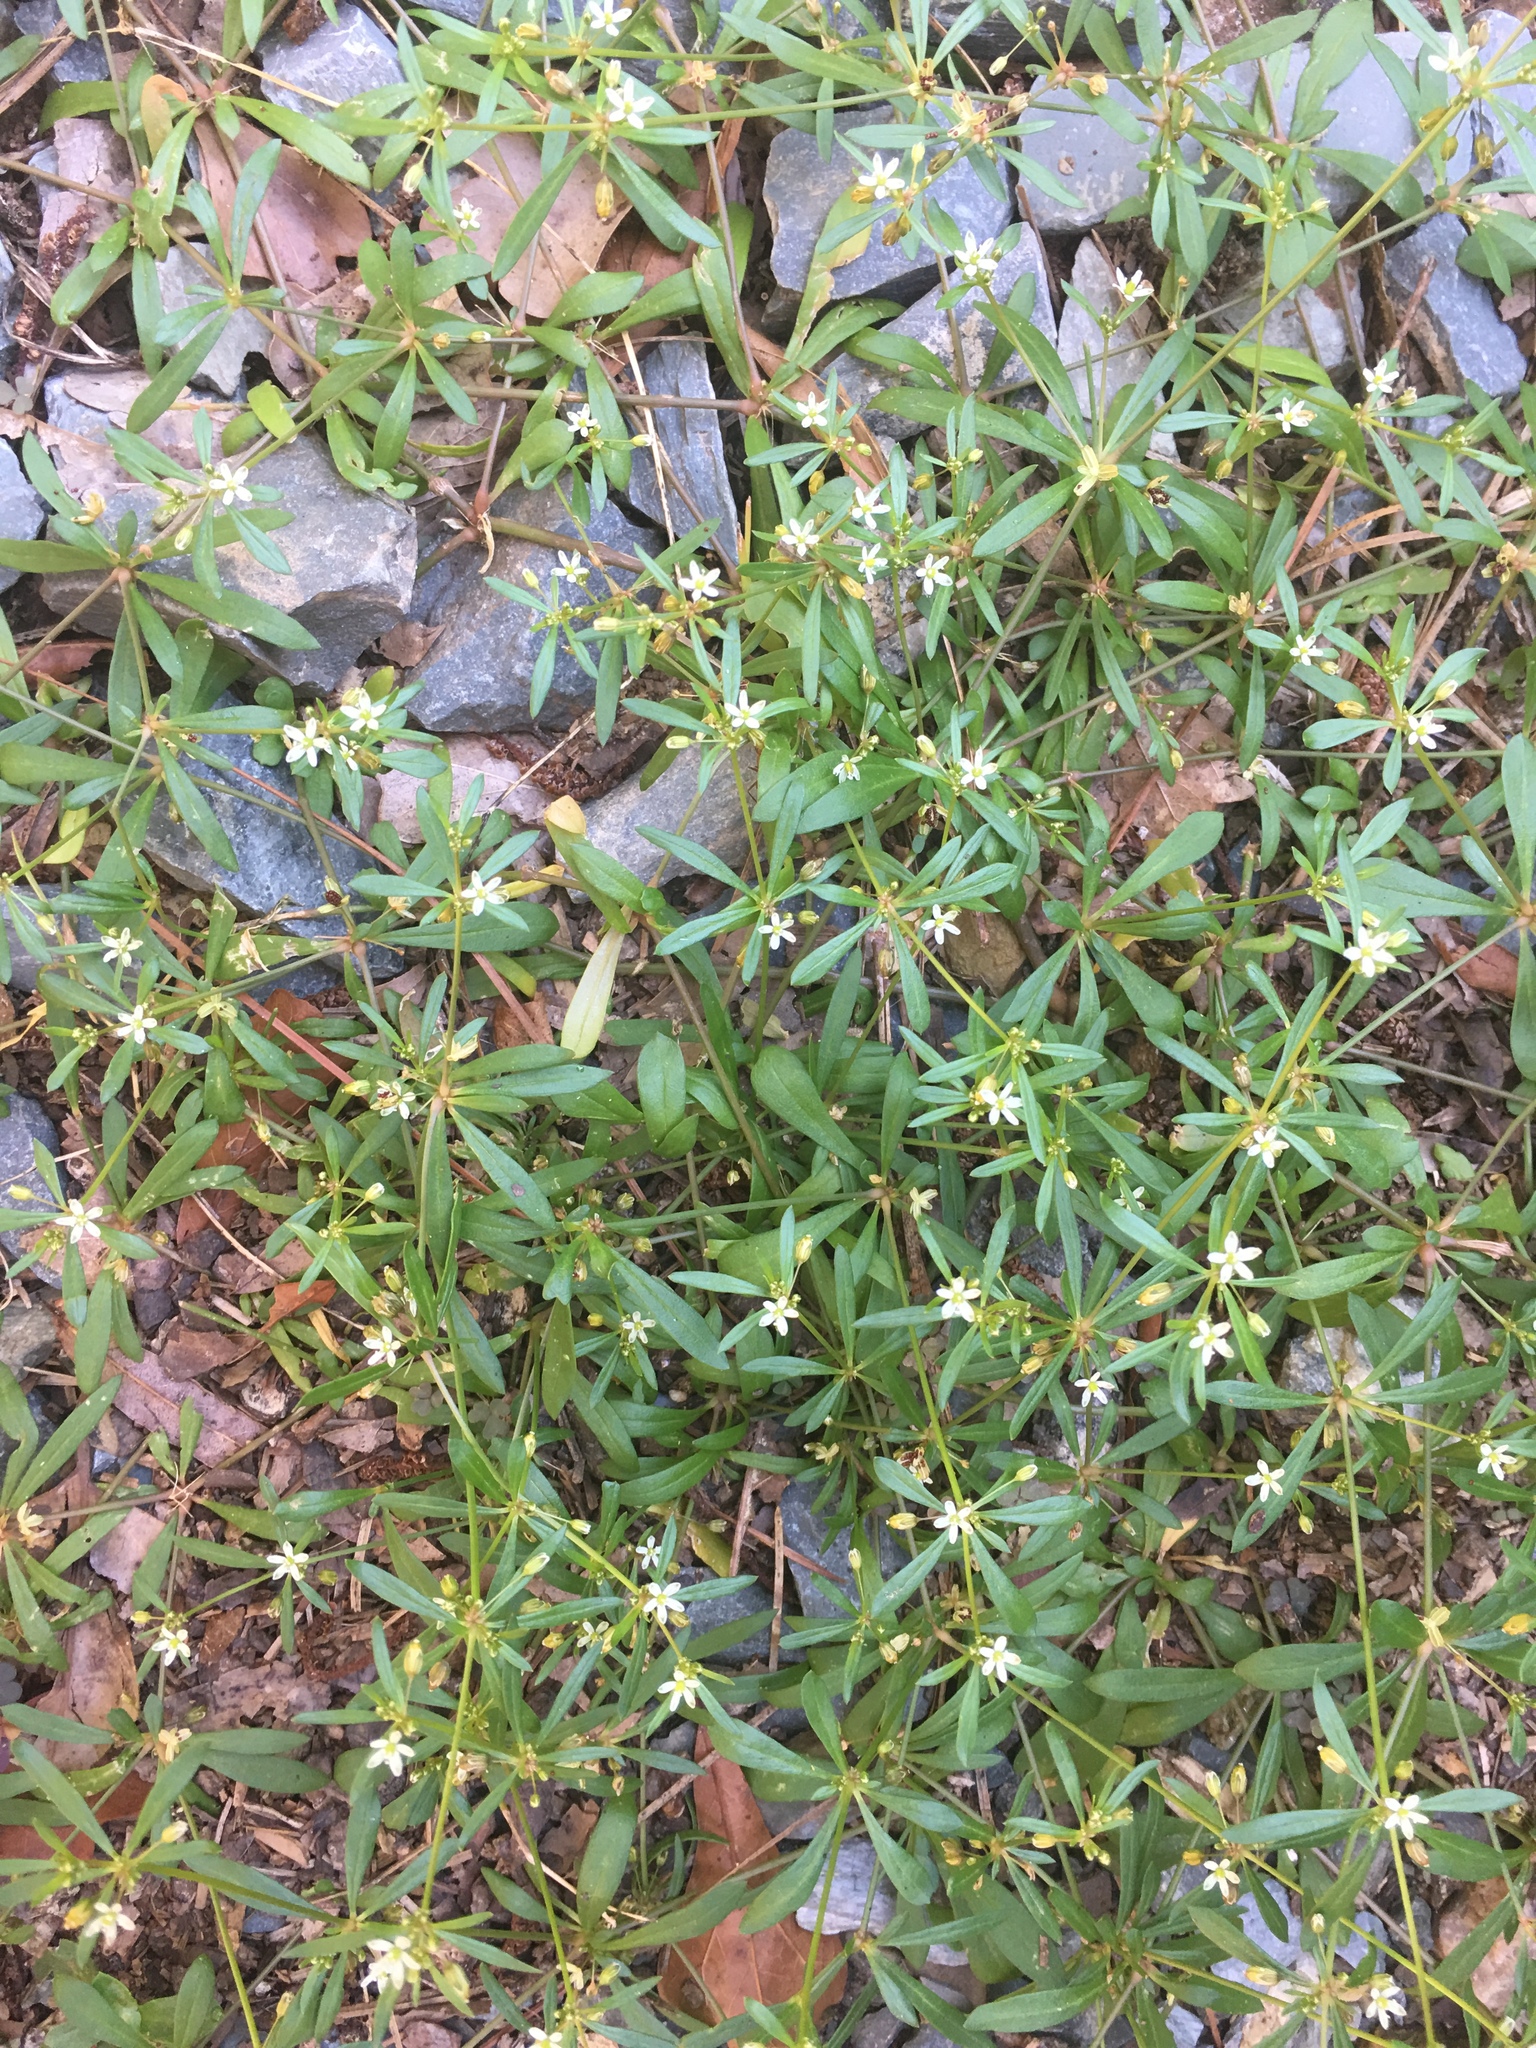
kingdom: Plantae
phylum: Tracheophyta
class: Magnoliopsida
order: Caryophyllales
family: Molluginaceae
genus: Mollugo
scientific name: Mollugo verticillata
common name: Green carpetweed
